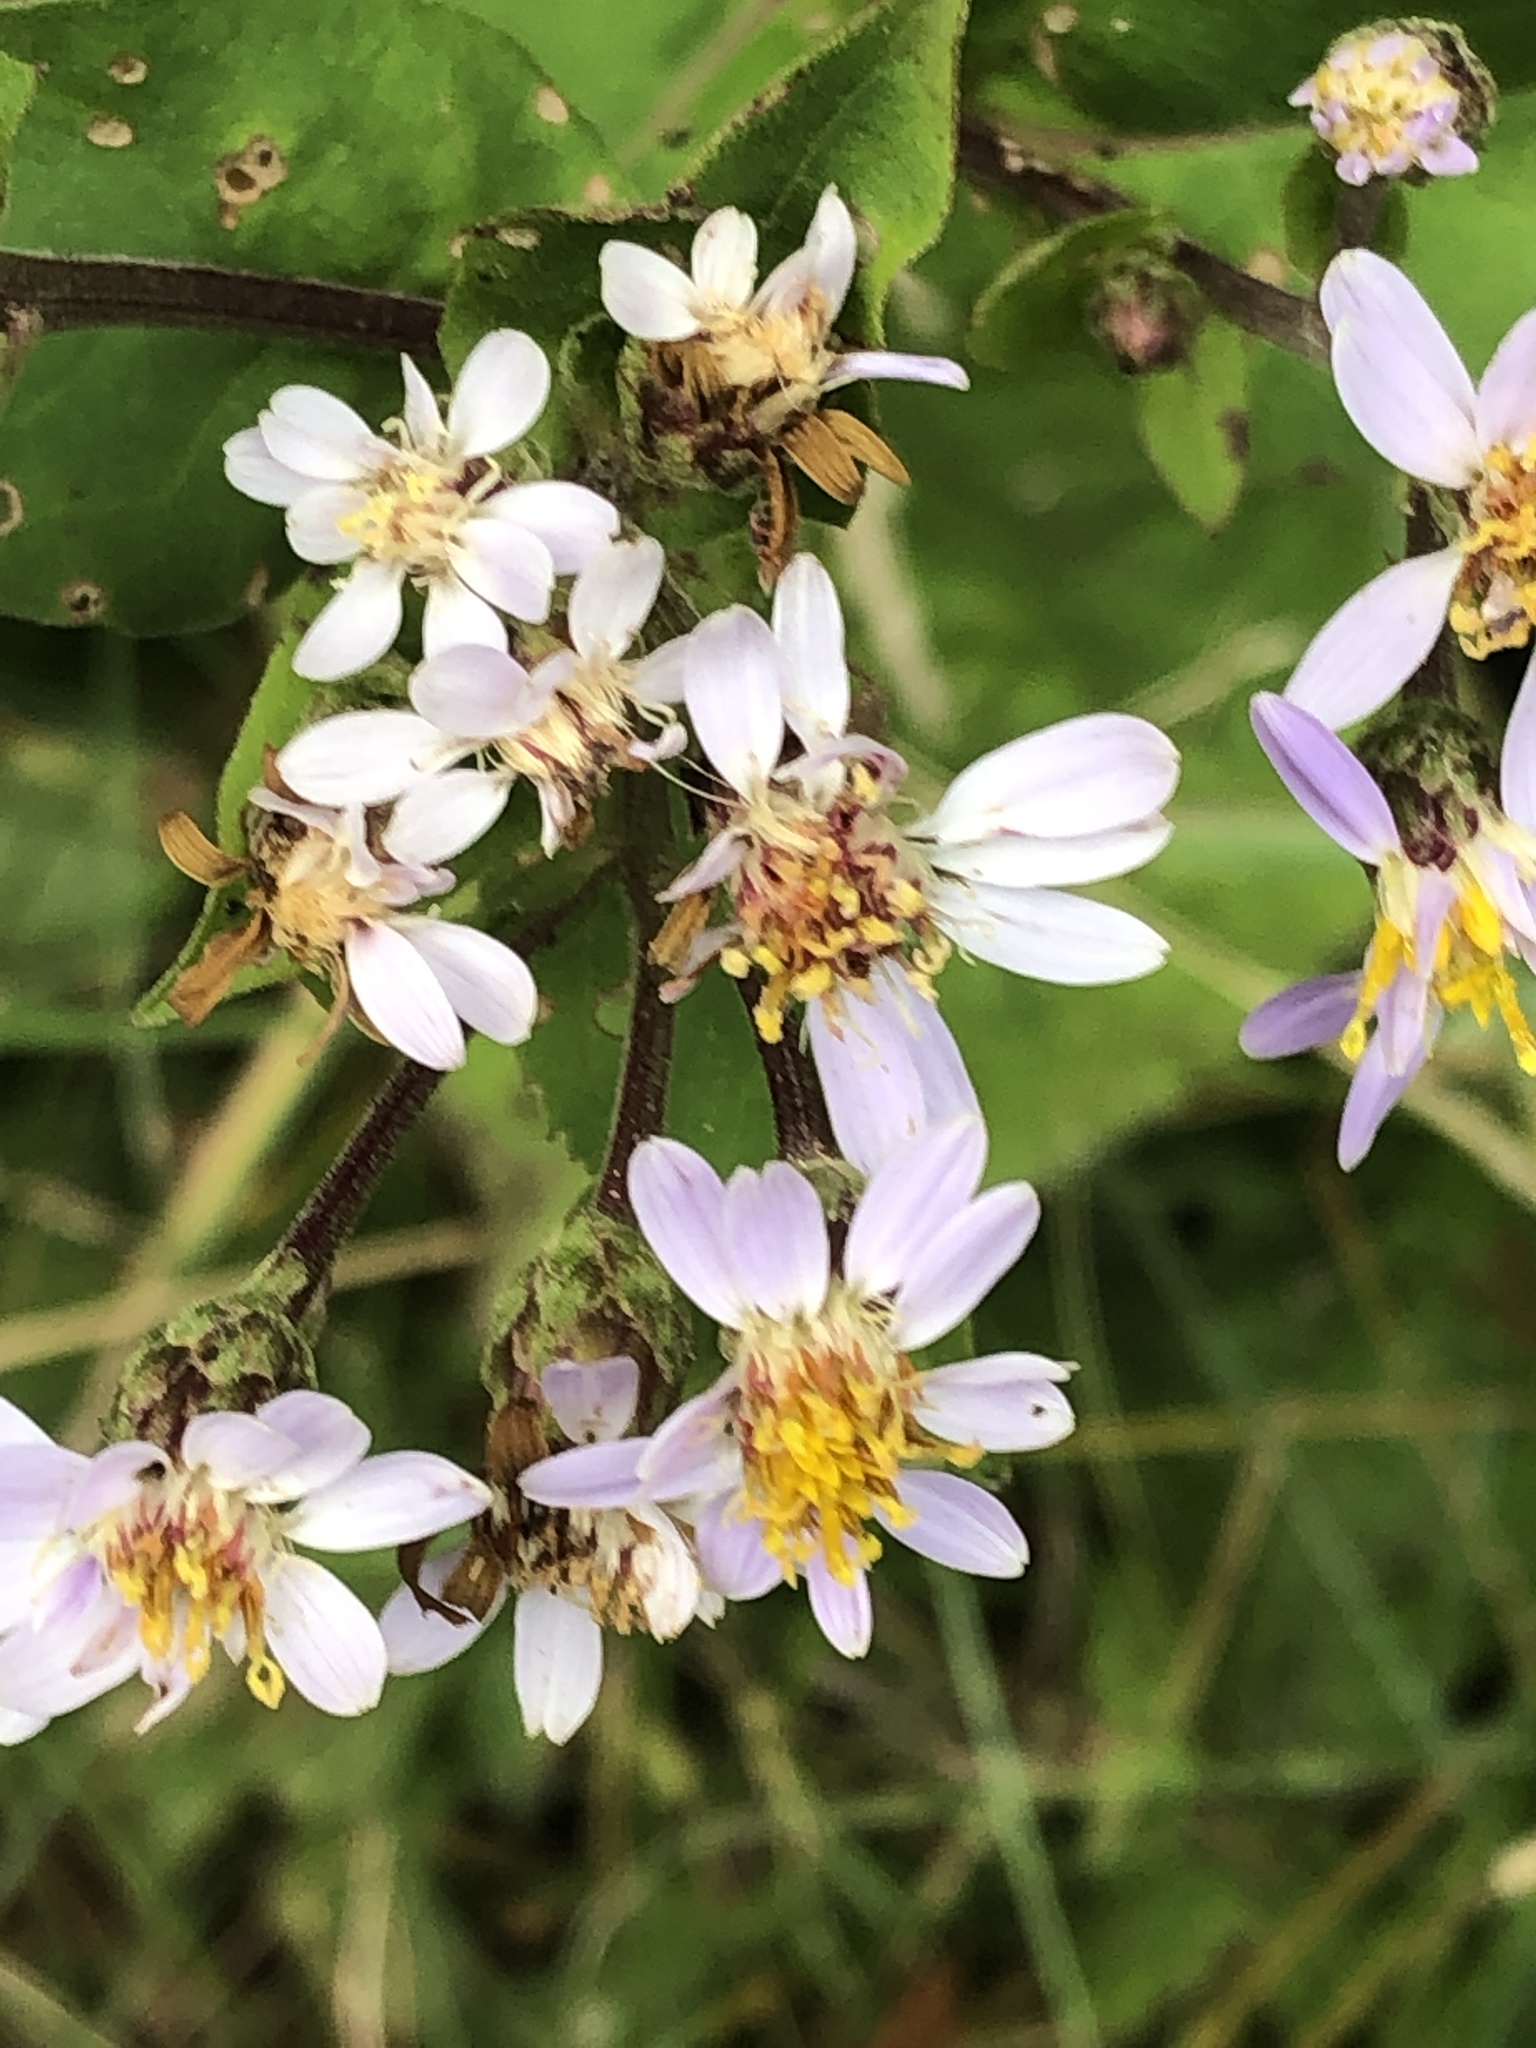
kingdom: Plantae
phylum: Tracheophyta
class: Magnoliopsida
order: Asterales
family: Asteraceae
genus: Eurybia
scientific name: Eurybia macrophylla
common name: Big-leaved aster
